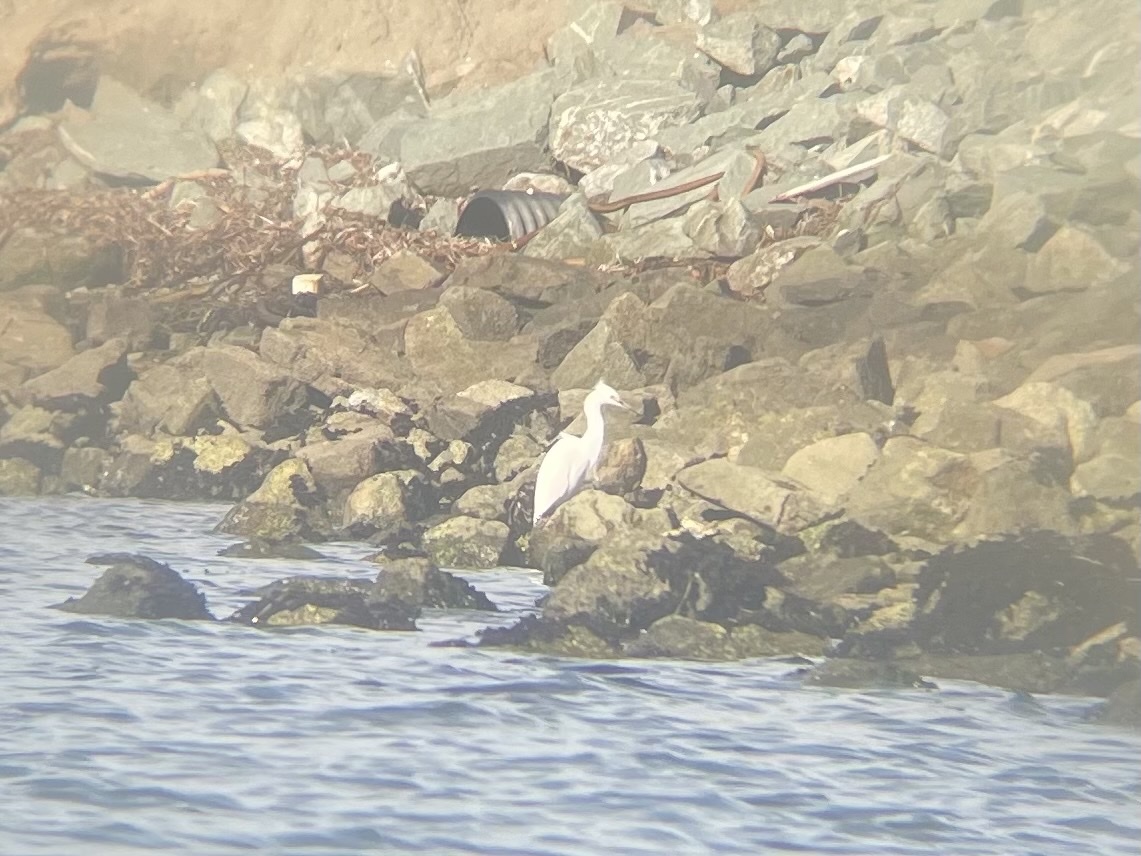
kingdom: Animalia
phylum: Chordata
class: Aves
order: Pelecaniformes
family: Ardeidae
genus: Egretta
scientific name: Egretta thula
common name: Snowy egret
